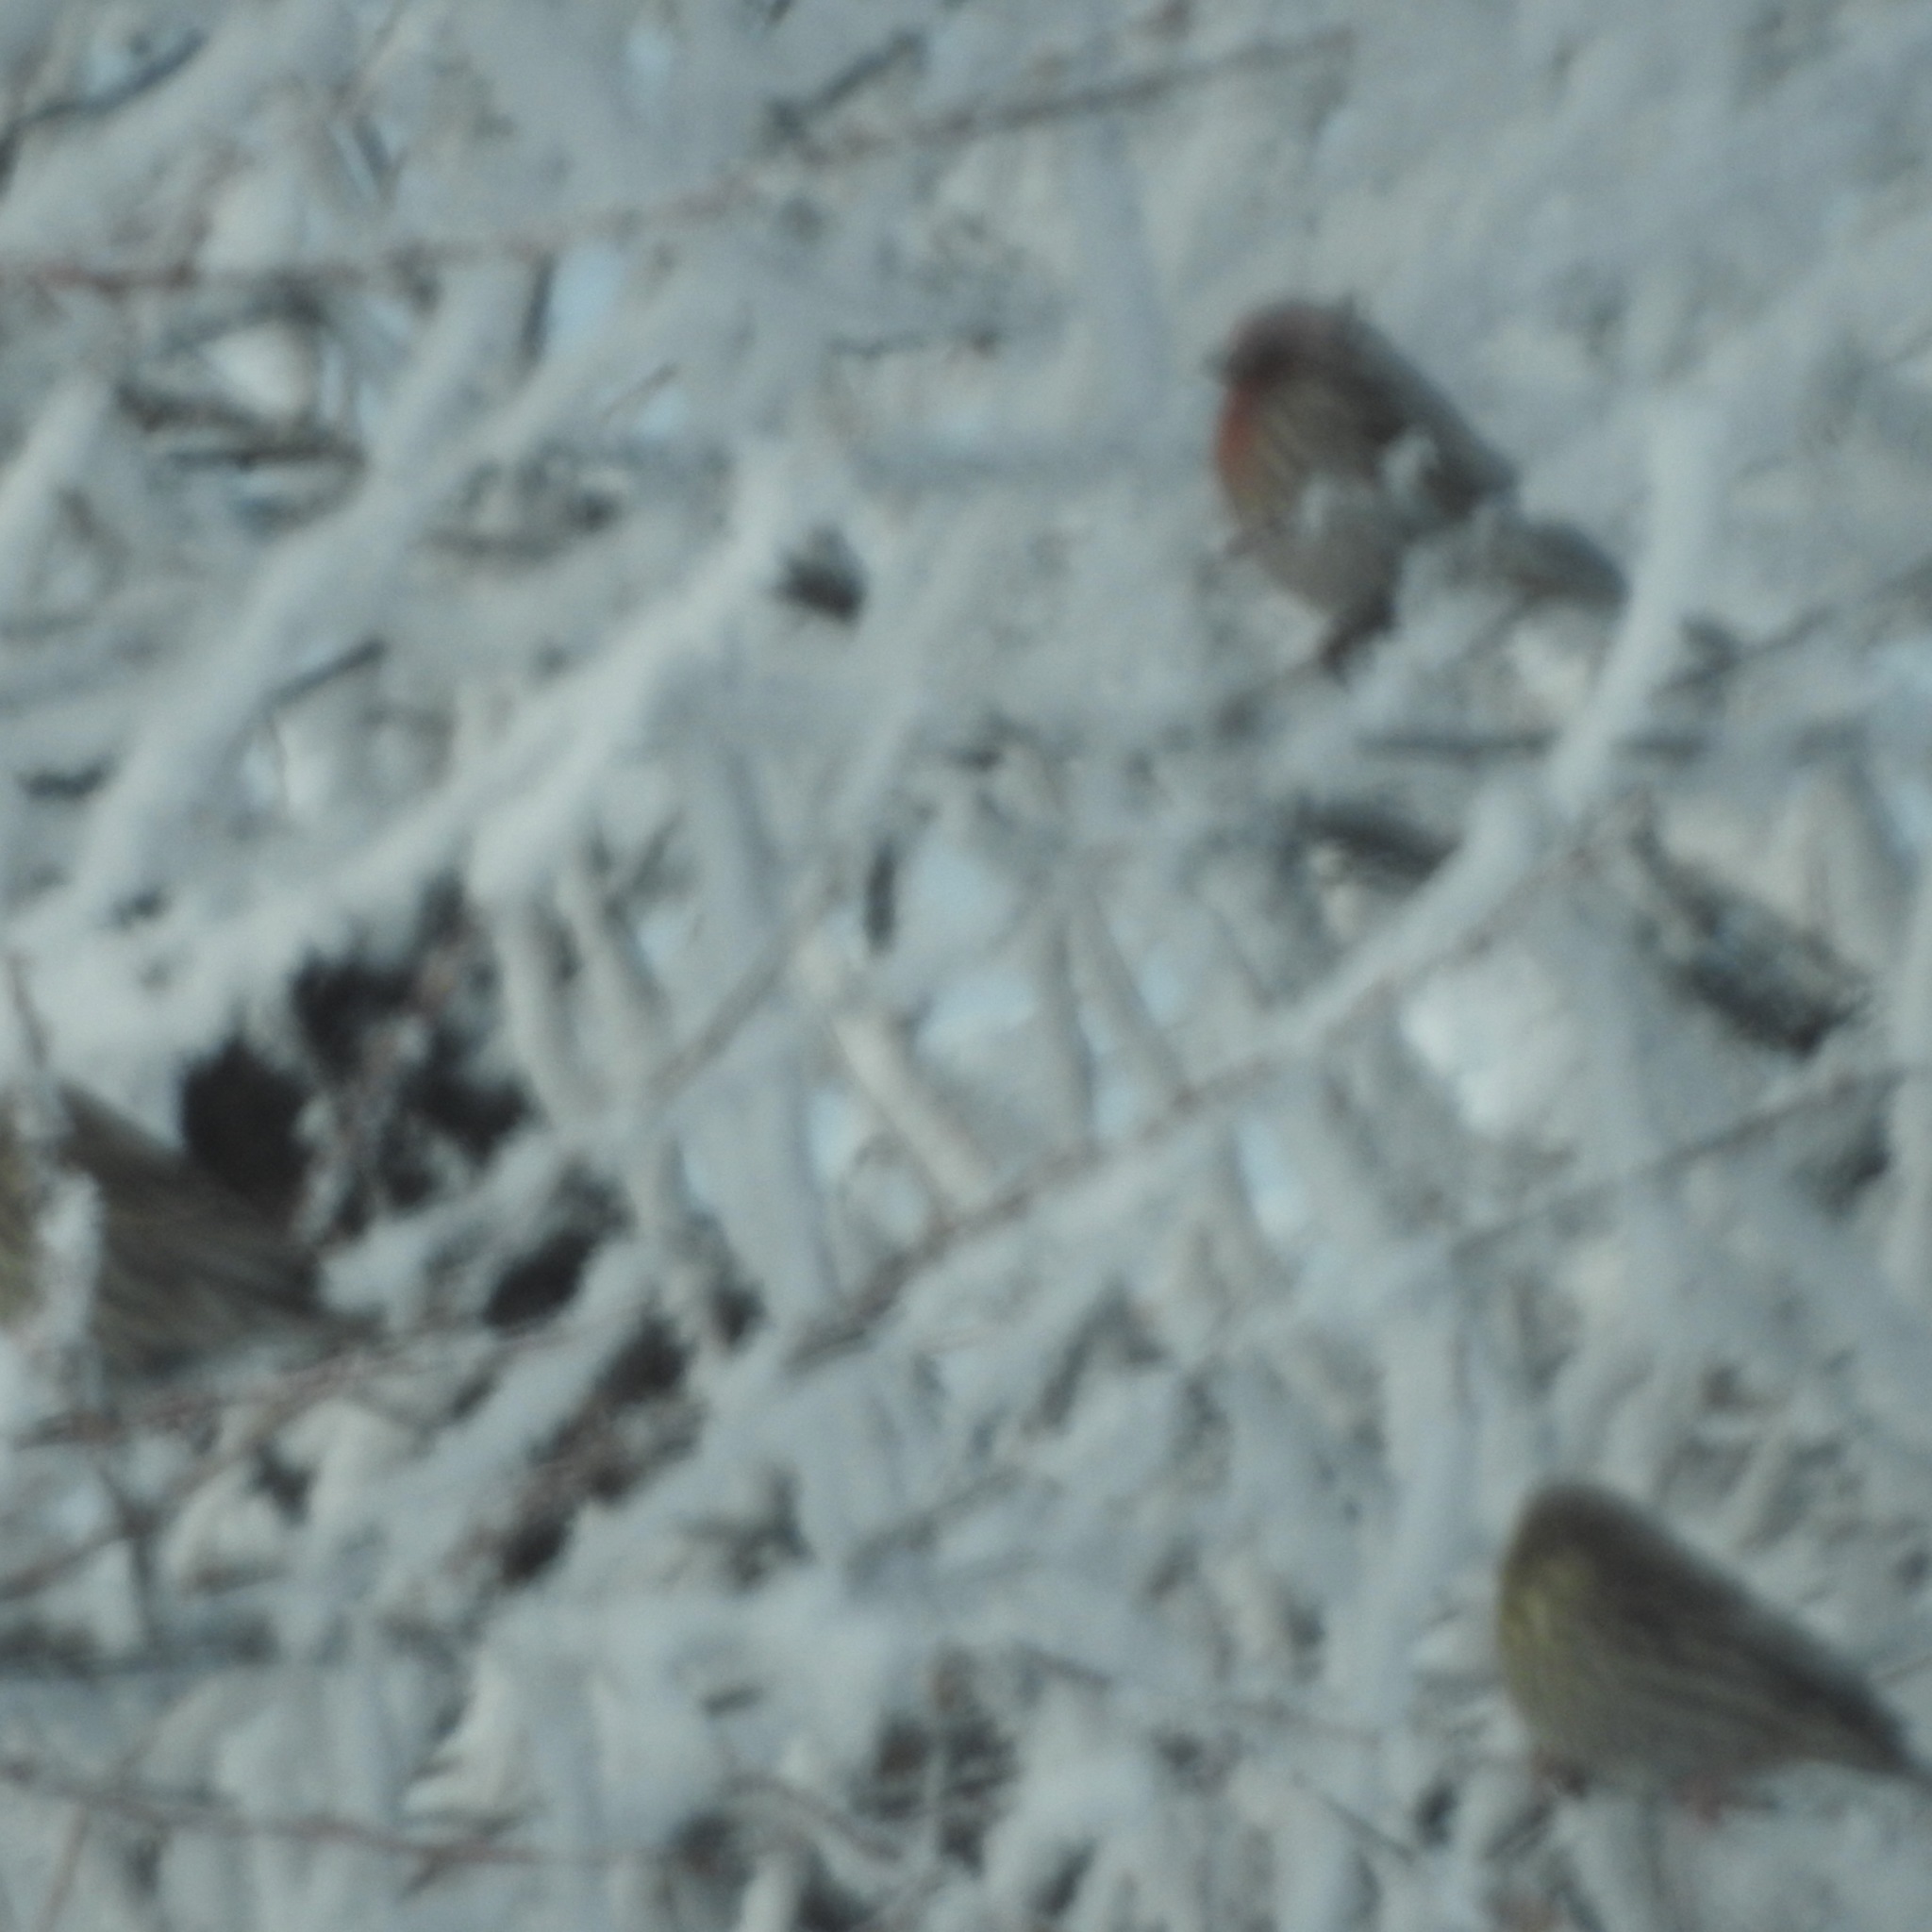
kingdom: Animalia
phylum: Chordata
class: Aves
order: Passeriformes
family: Fringillidae
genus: Haemorhous
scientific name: Haemorhous mexicanus
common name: House finch
